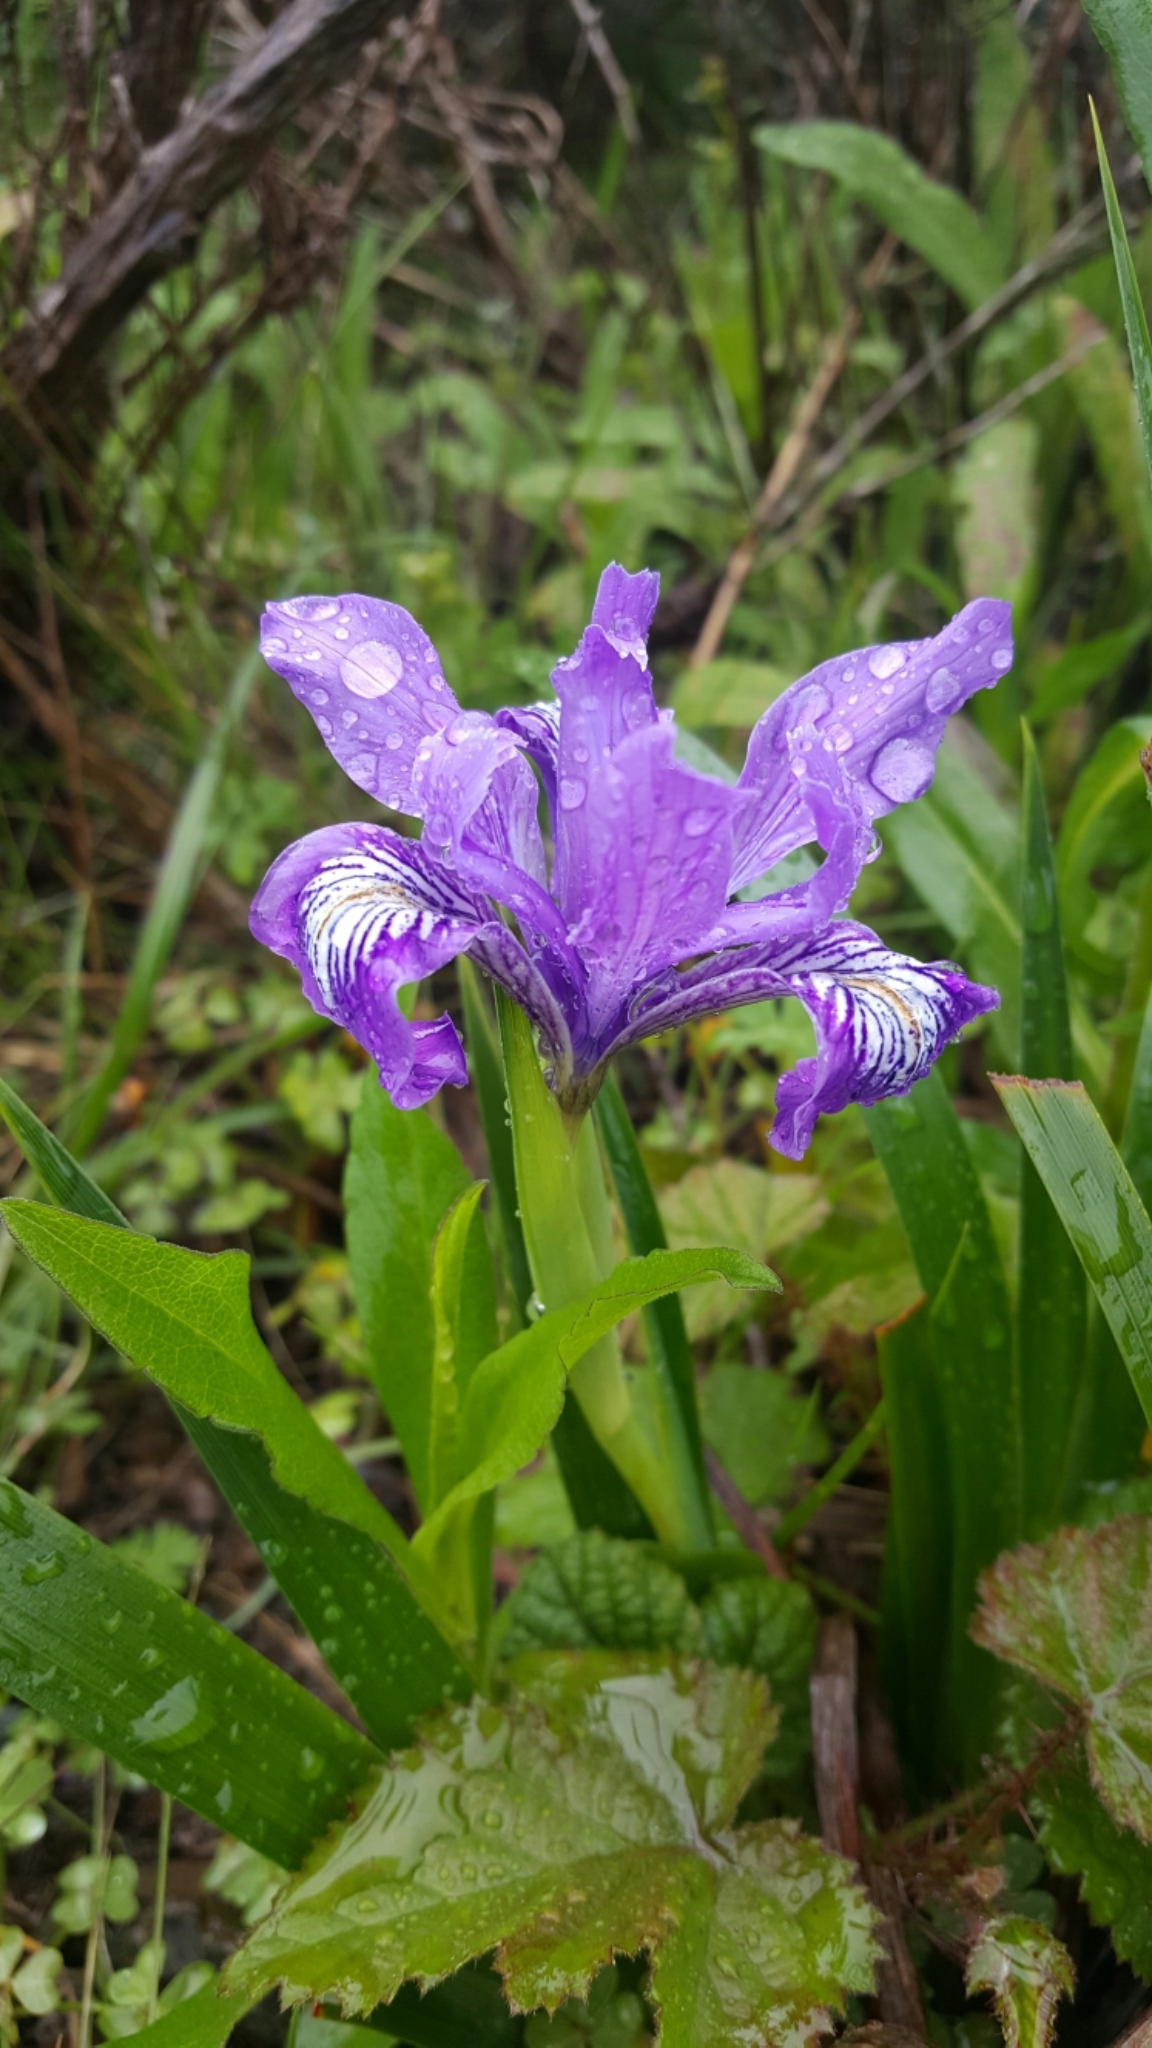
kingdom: Plantae
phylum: Tracheophyta
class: Liliopsida
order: Asparagales
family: Iridaceae
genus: Iris
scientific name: Iris douglasiana
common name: Marin iris
